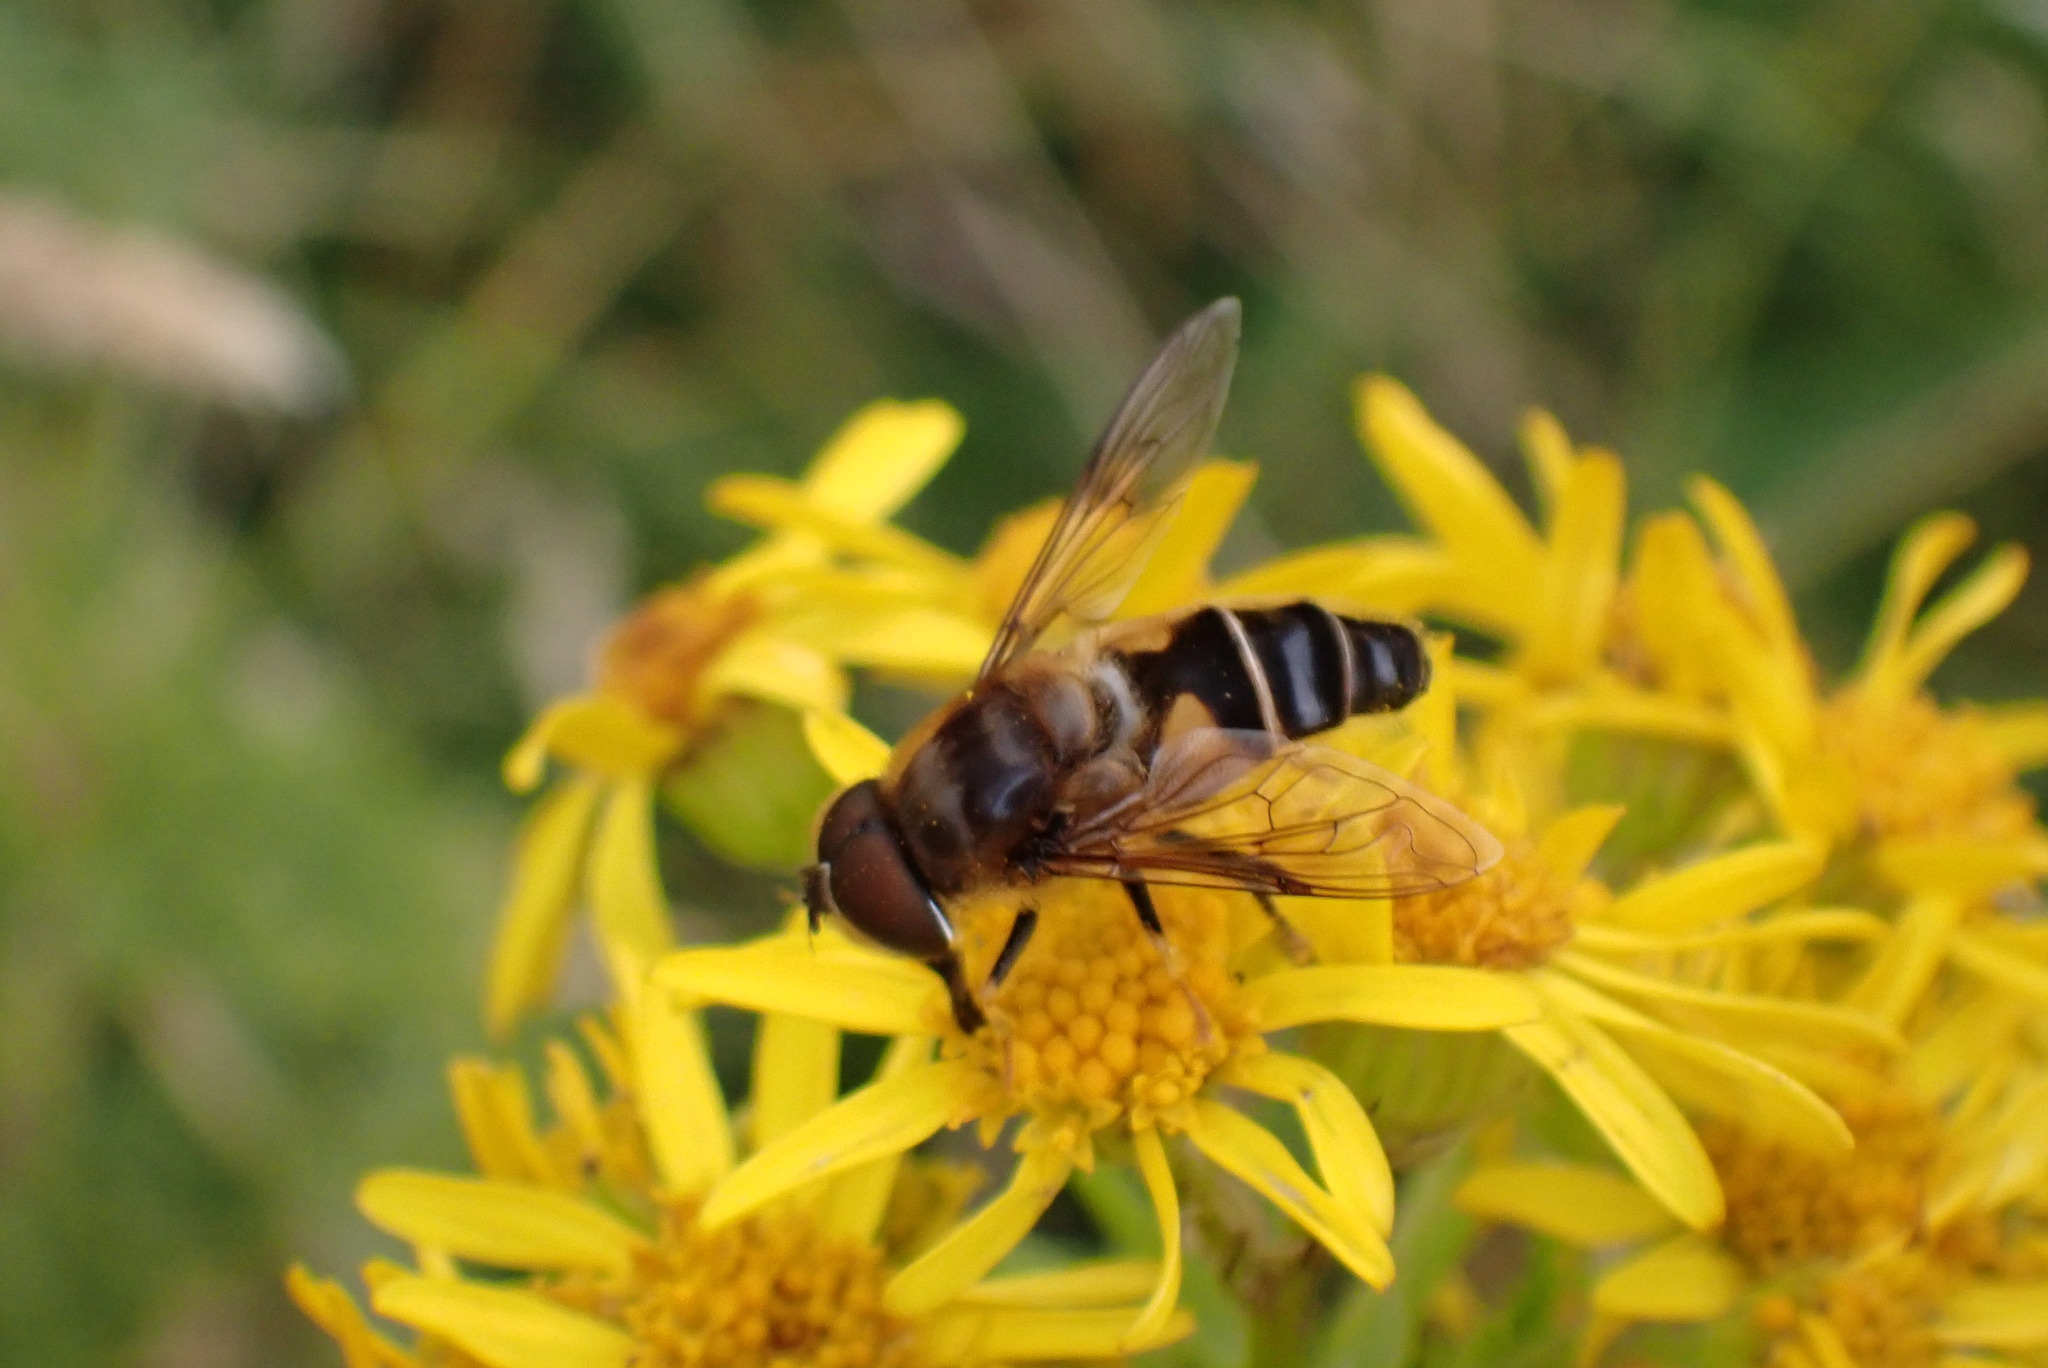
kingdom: Animalia
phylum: Arthropoda
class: Insecta
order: Diptera
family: Syrphidae
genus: Eristalis
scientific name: Eristalis pertinax
